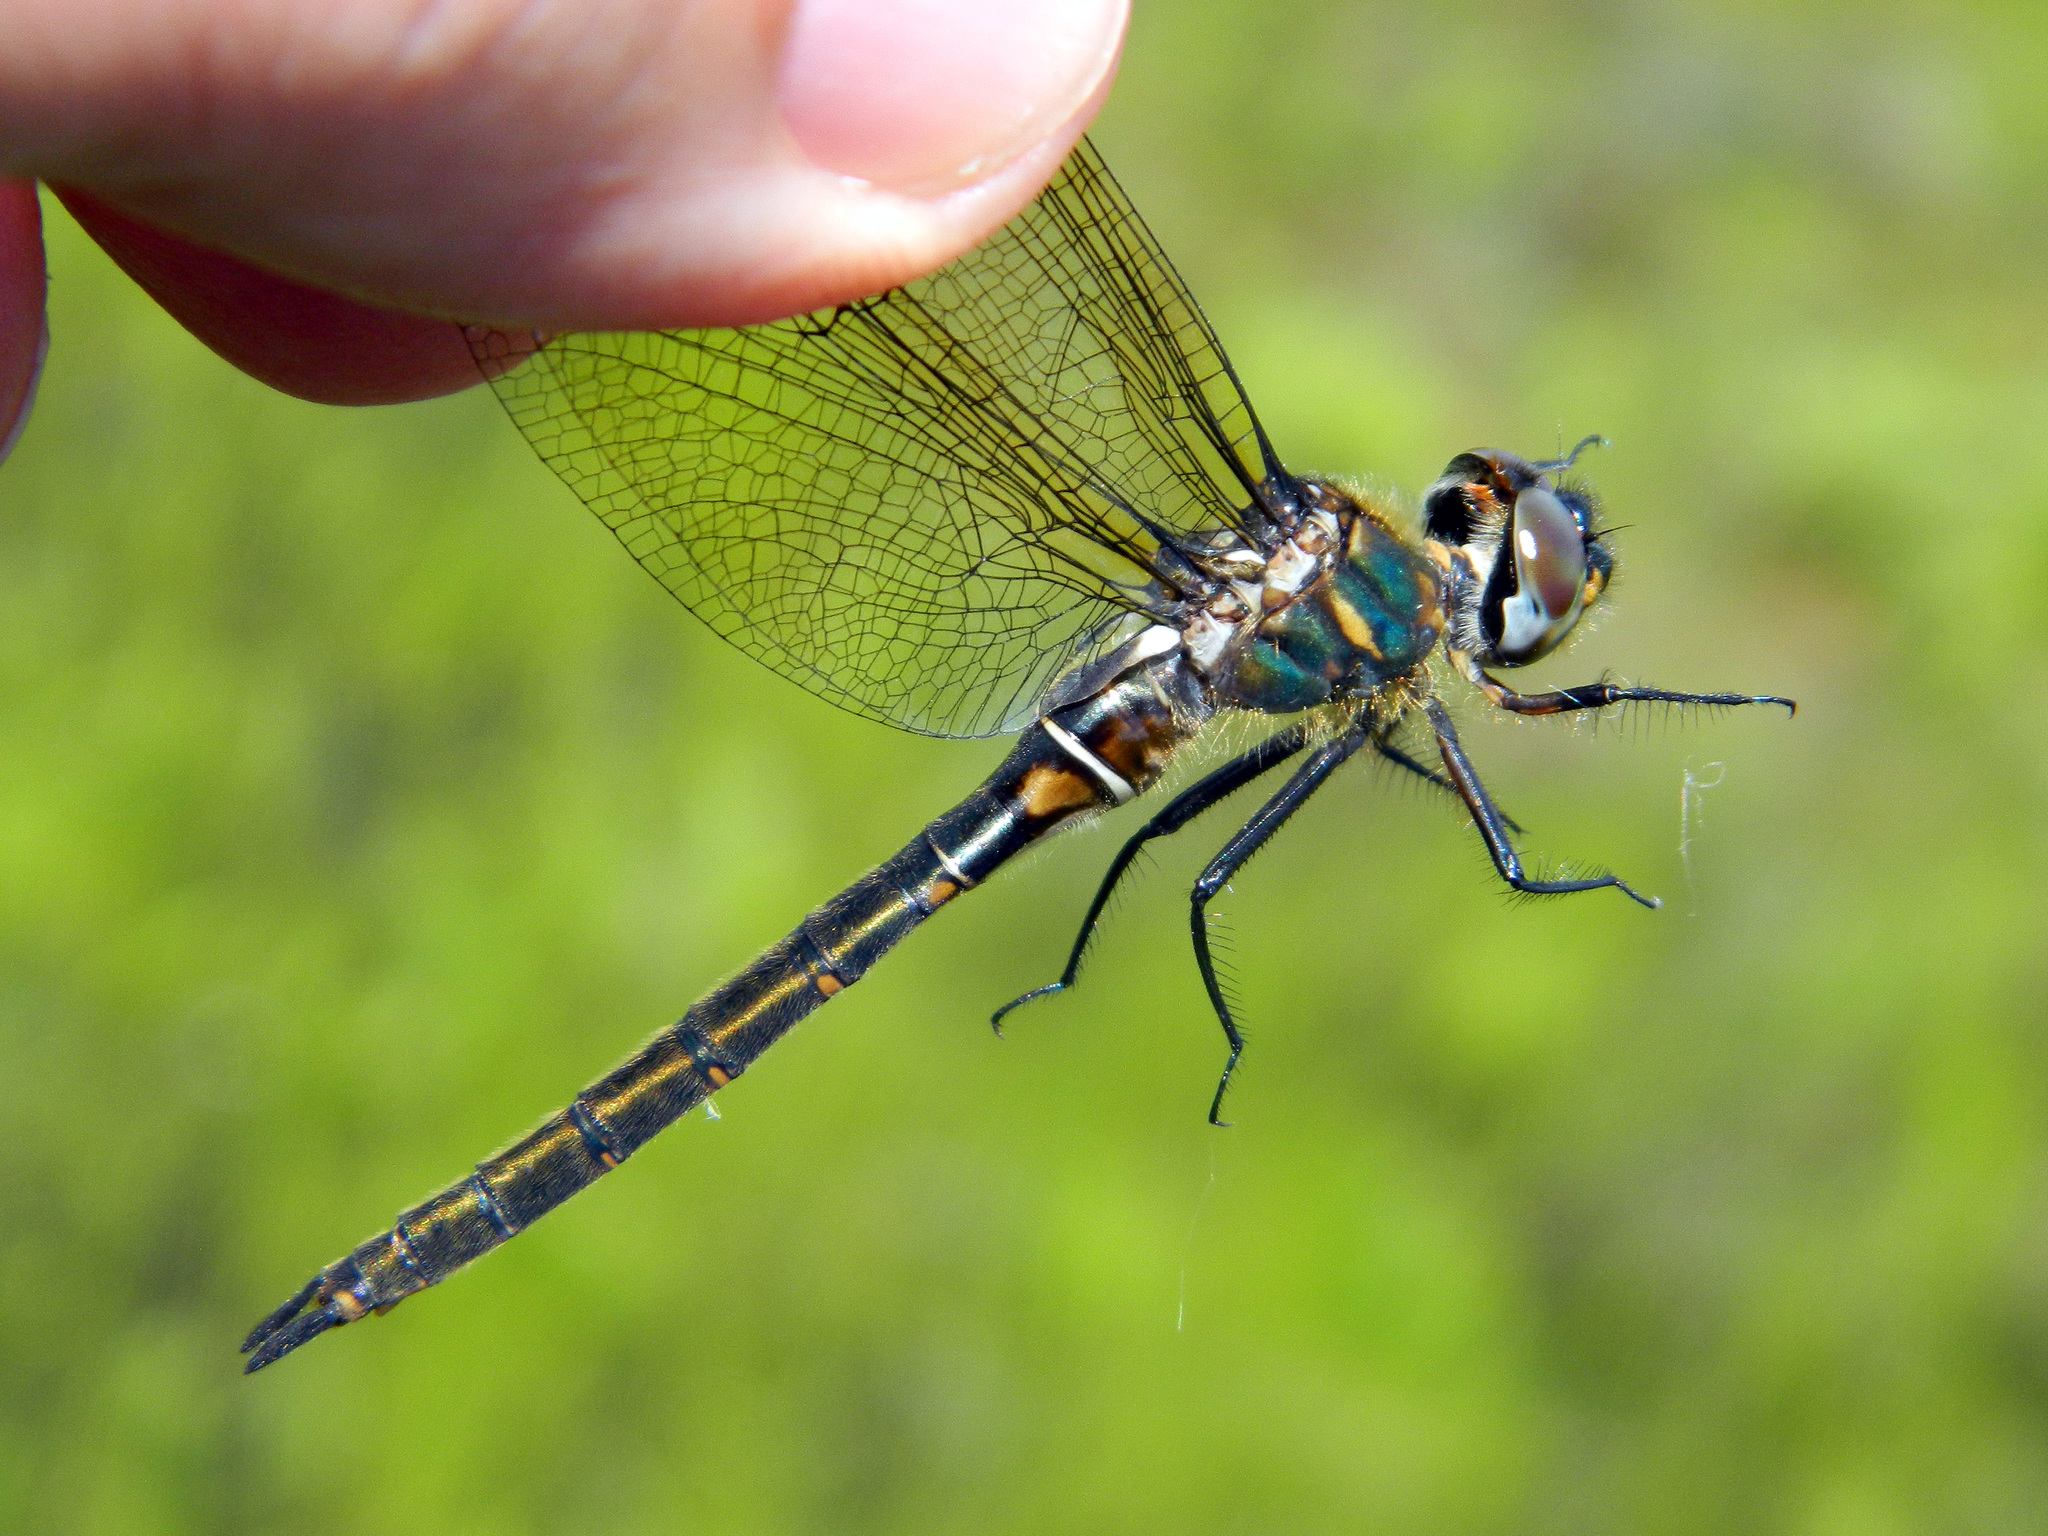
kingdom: Animalia
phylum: Arthropoda
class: Insecta
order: Odonata
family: Corduliidae
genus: Somatochlora
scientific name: Somatochlora brevicincta
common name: Quebec emerald
